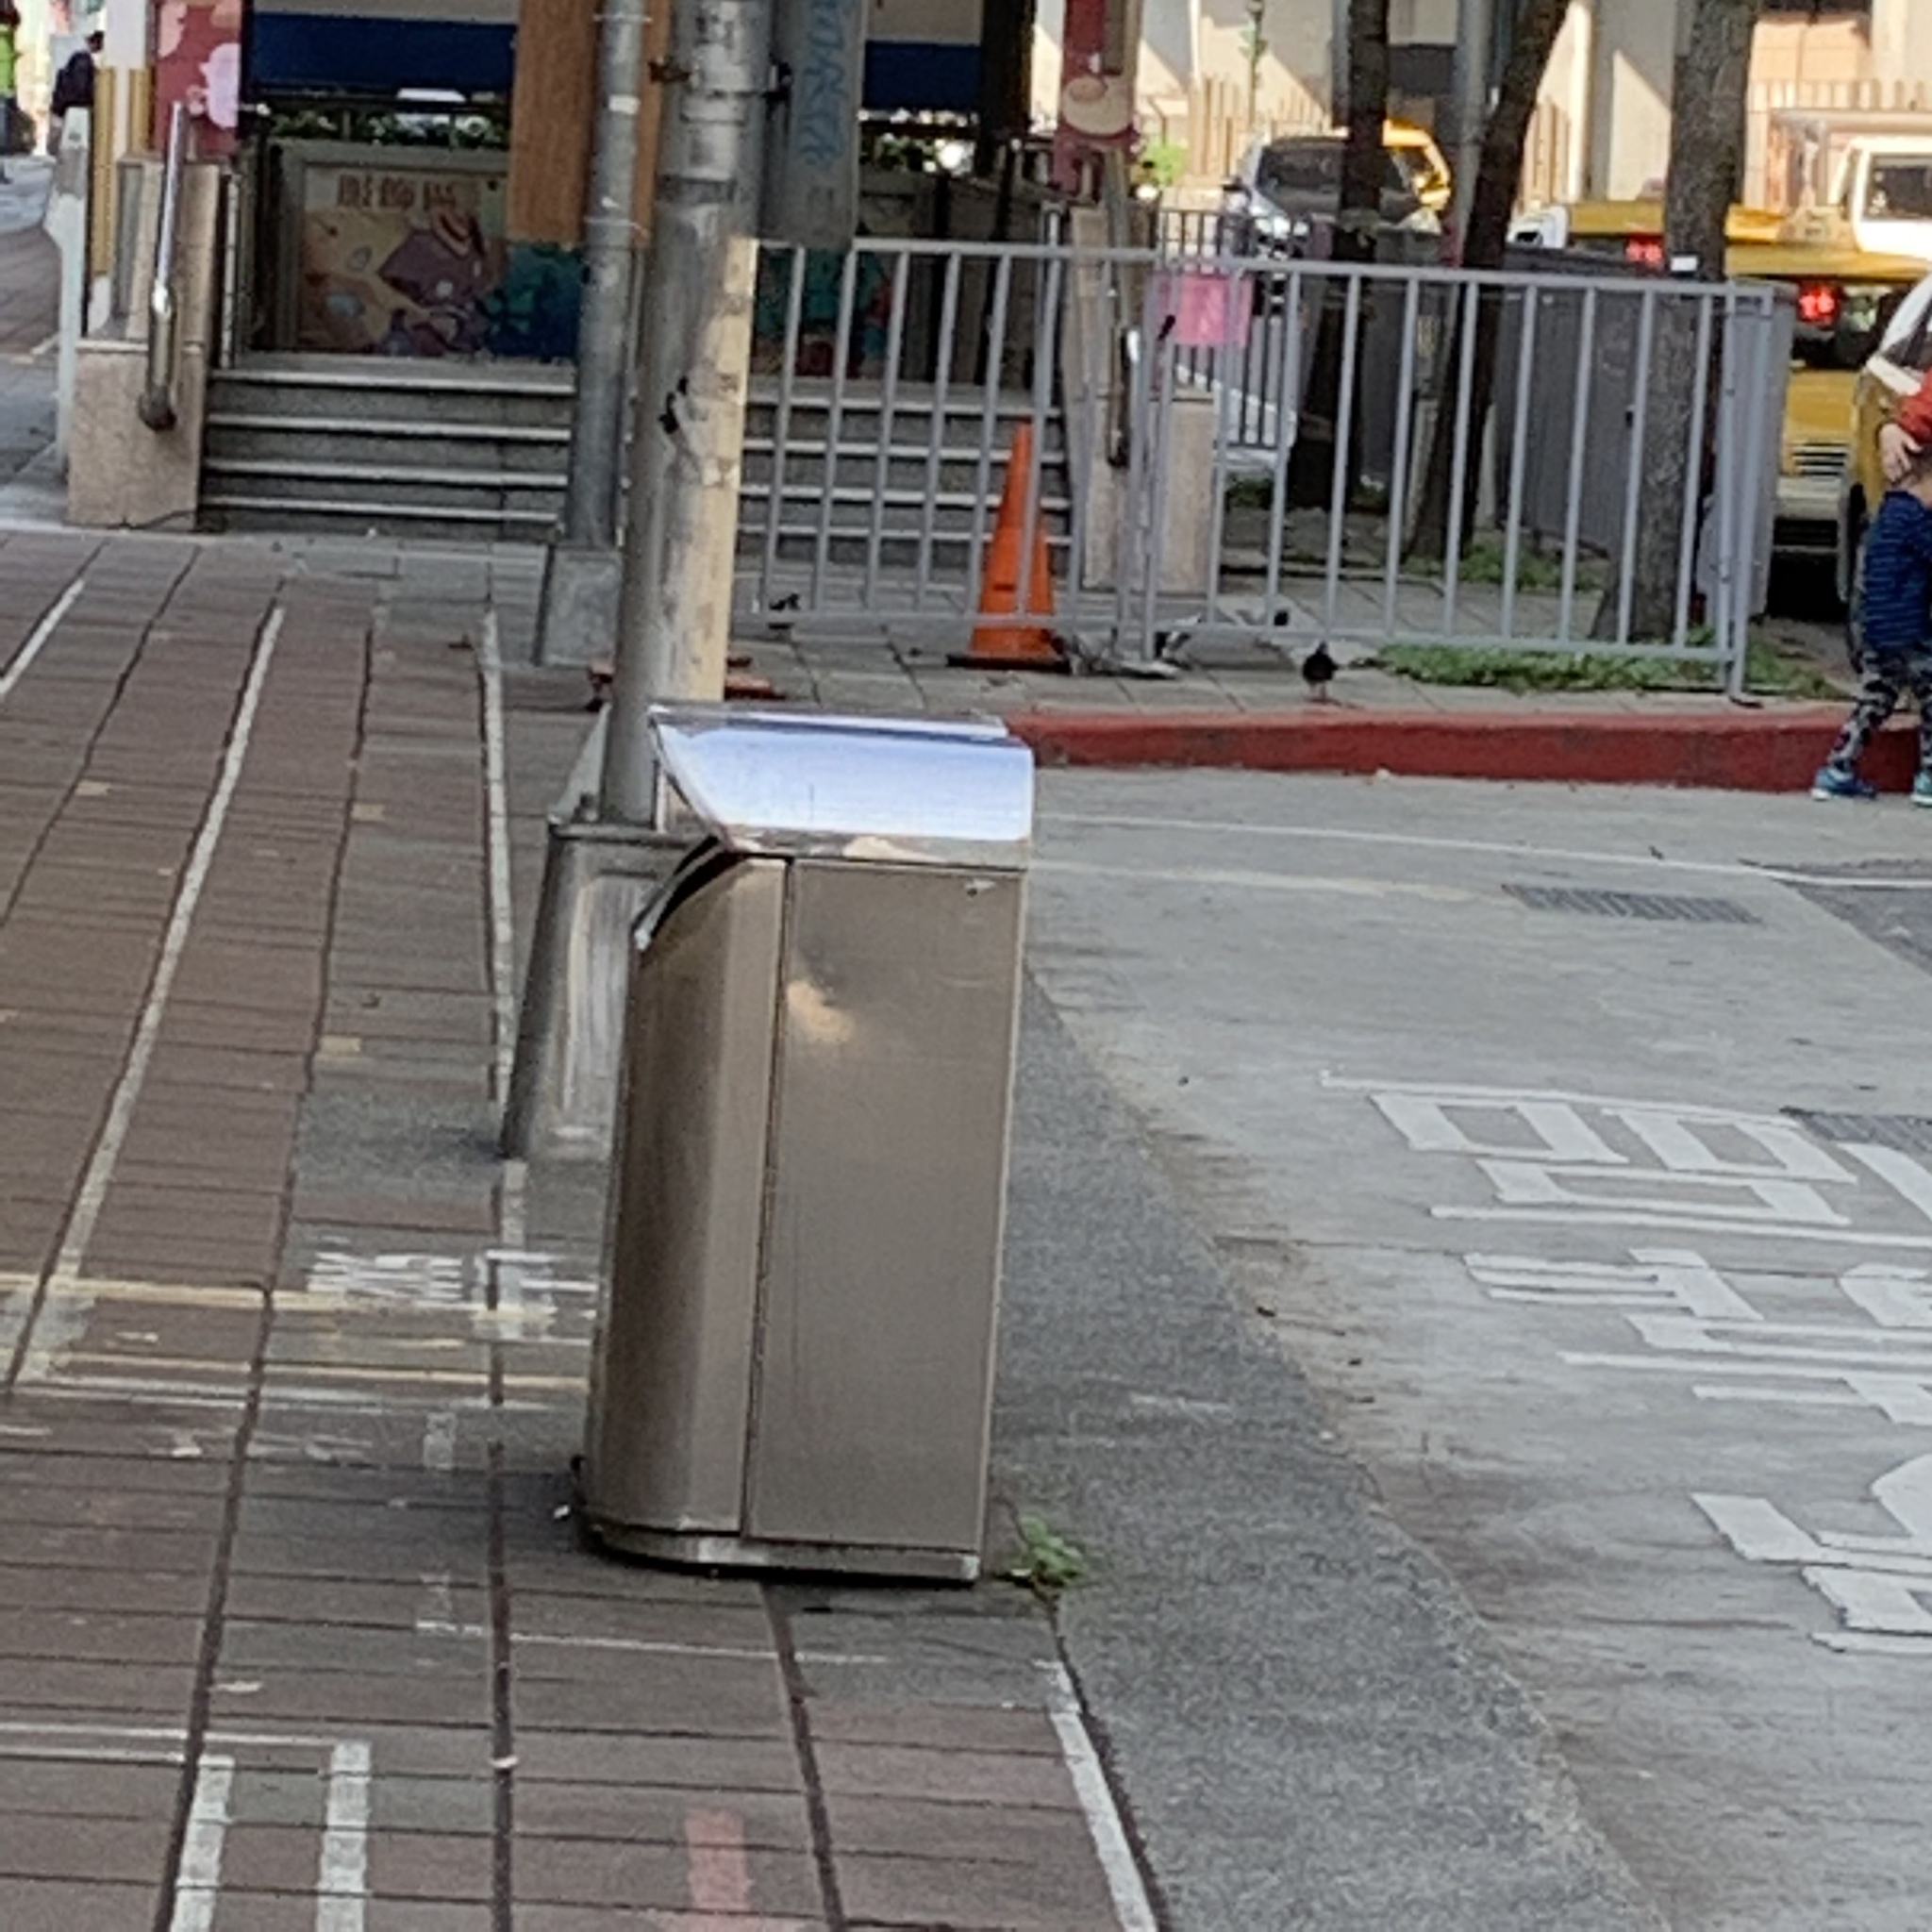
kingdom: Animalia
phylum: Chordata
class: Aves
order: Columbiformes
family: Columbidae
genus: Columba
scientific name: Columba livia
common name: Rock pigeon
